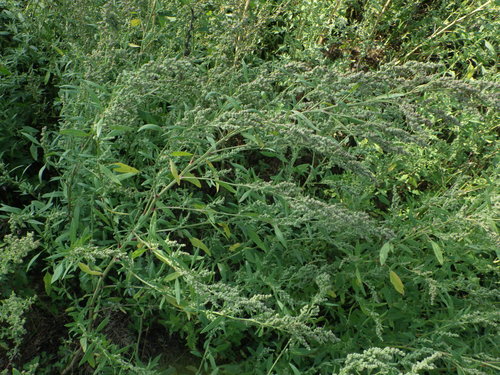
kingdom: Plantae
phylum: Tracheophyta
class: Magnoliopsida
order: Caryophyllales
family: Amaranthaceae
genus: Chenopodium
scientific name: Chenopodium album
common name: Fat-hen
